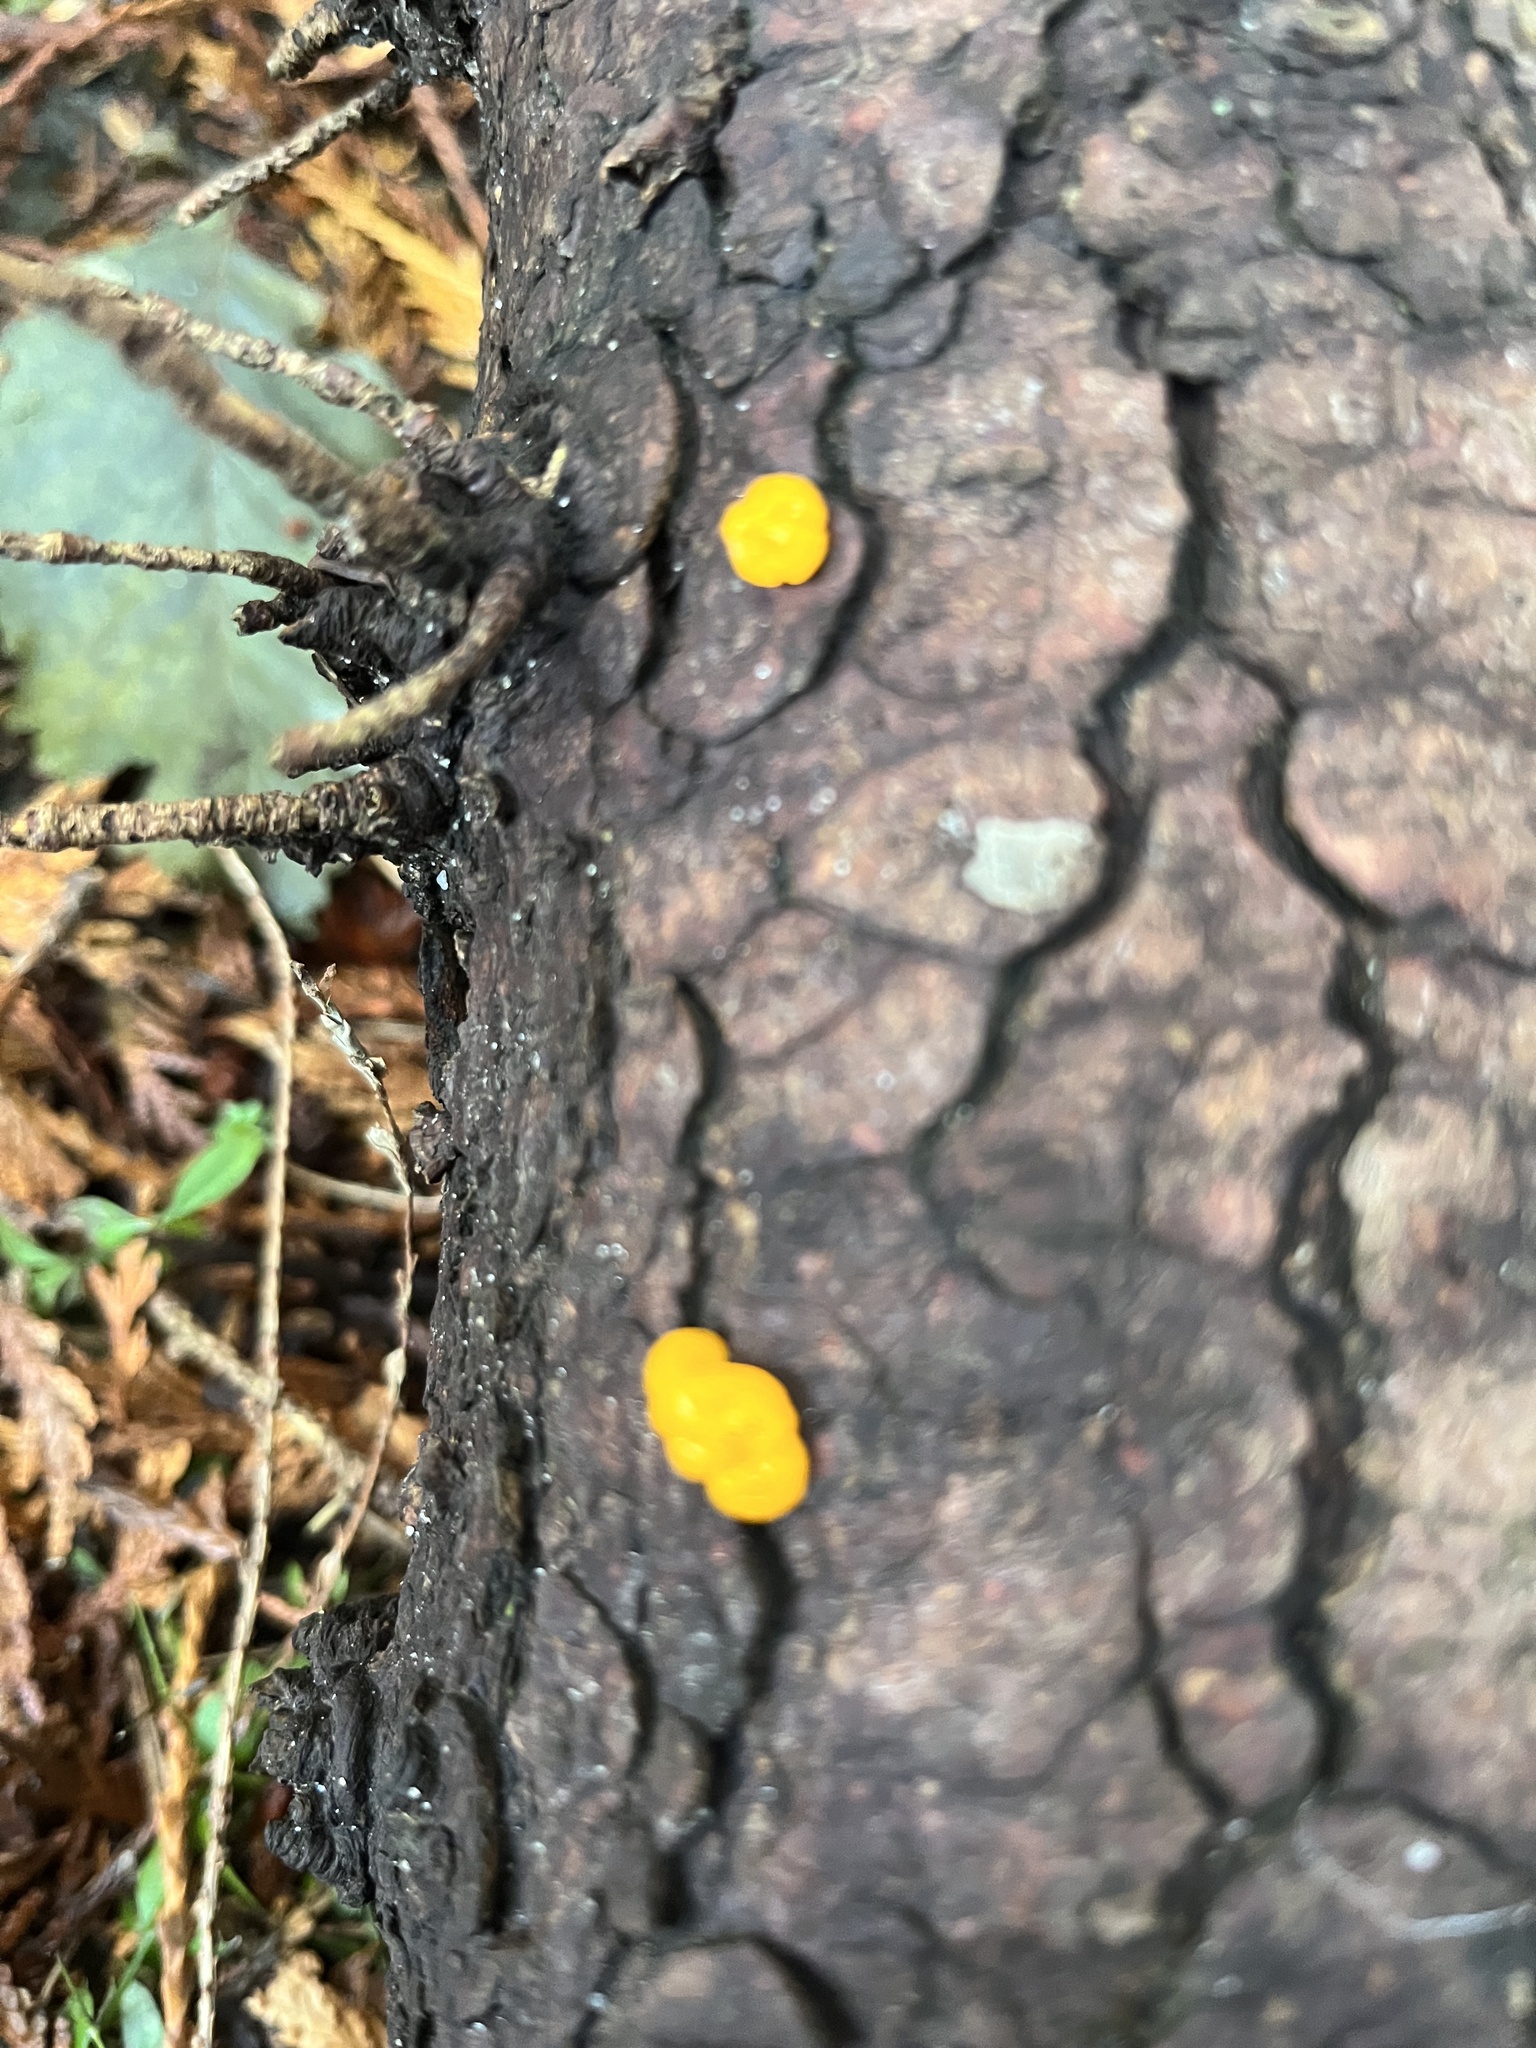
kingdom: Fungi
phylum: Basidiomycota
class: Dacrymycetes
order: Dacrymycetales
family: Dacrymycetaceae
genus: Dacrymyces
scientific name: Dacrymyces chrysospermus
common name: Orange jelly spot
